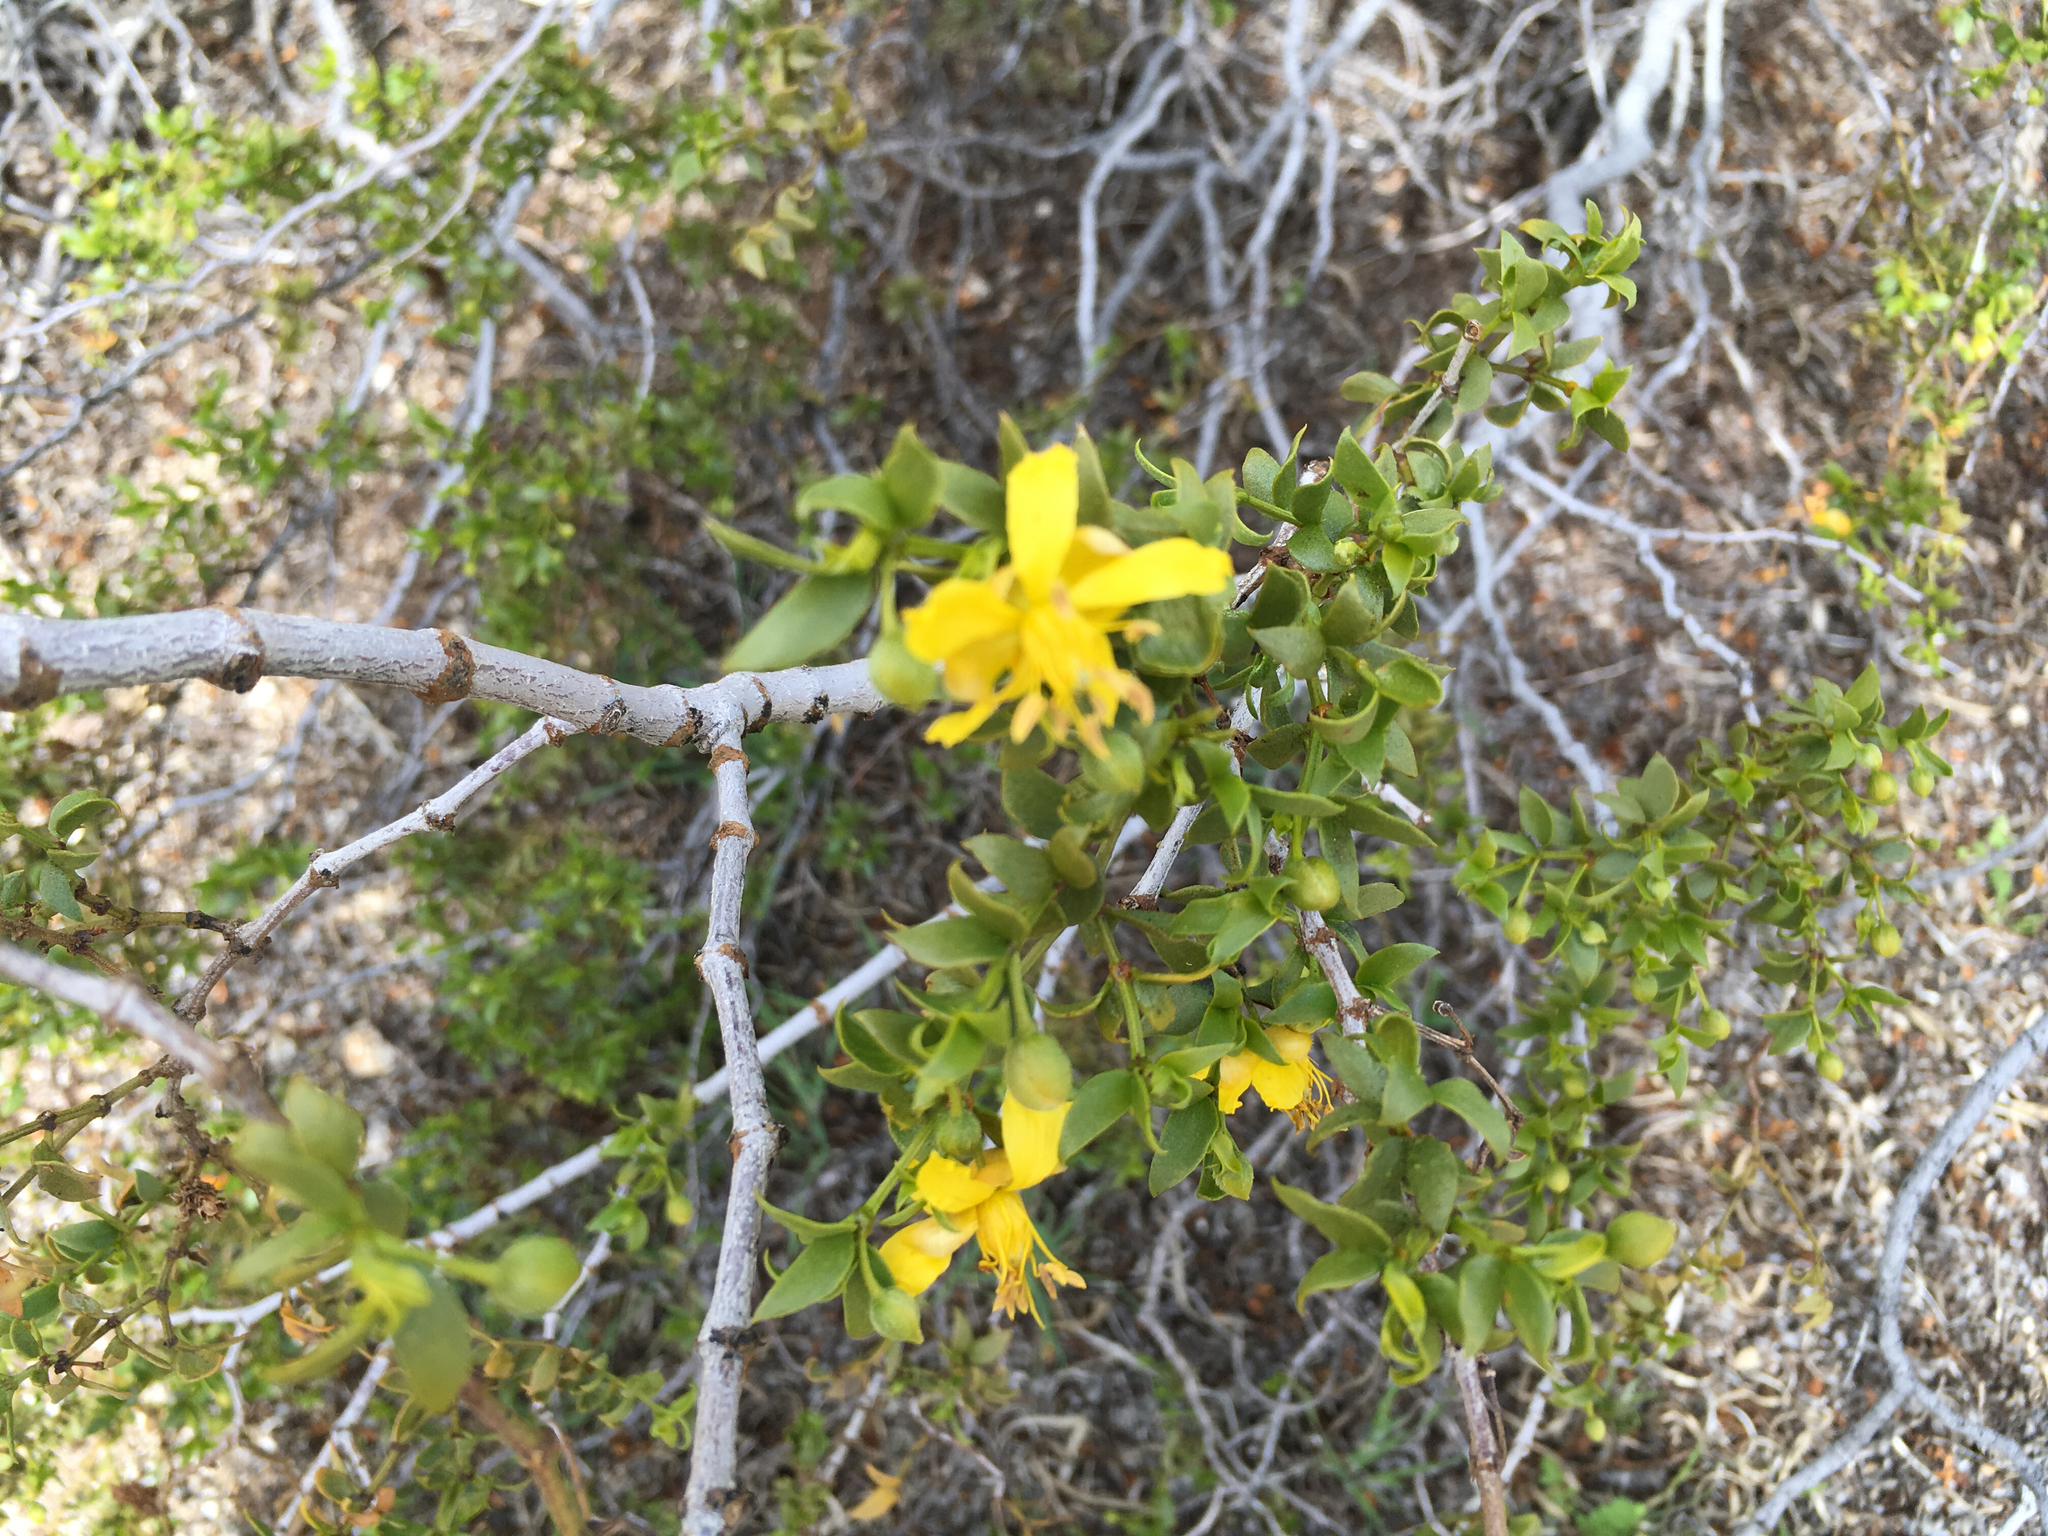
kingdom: Plantae
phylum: Tracheophyta
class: Magnoliopsida
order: Zygophyllales
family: Zygophyllaceae
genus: Larrea
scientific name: Larrea tridentata
